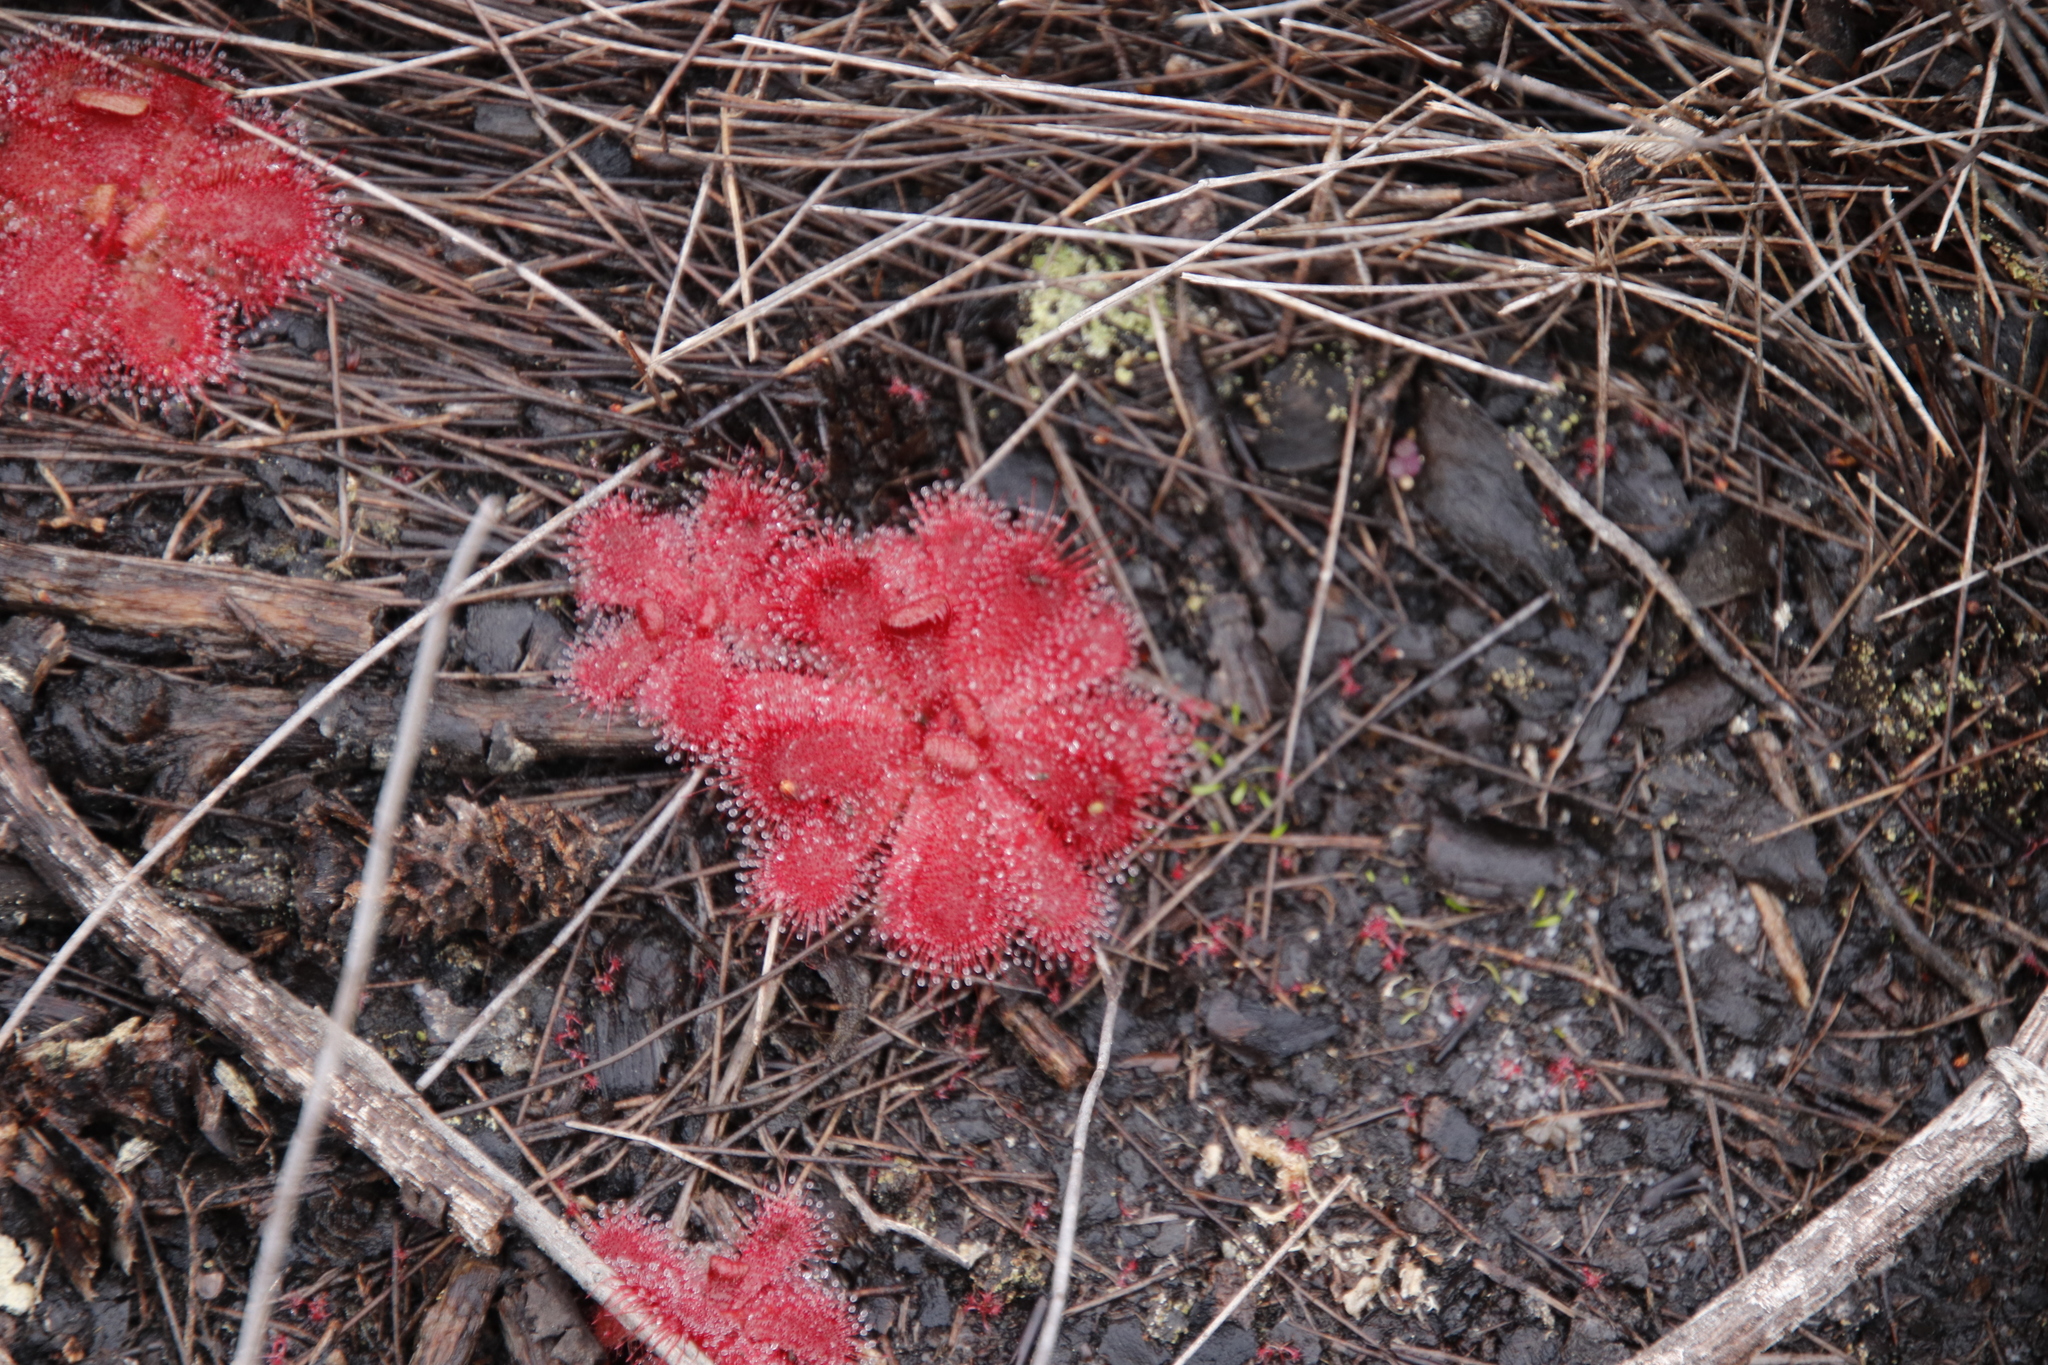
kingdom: Plantae
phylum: Tracheophyta
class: Magnoliopsida
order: Caryophyllales
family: Droseraceae
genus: Drosera
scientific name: Drosera trinervia
